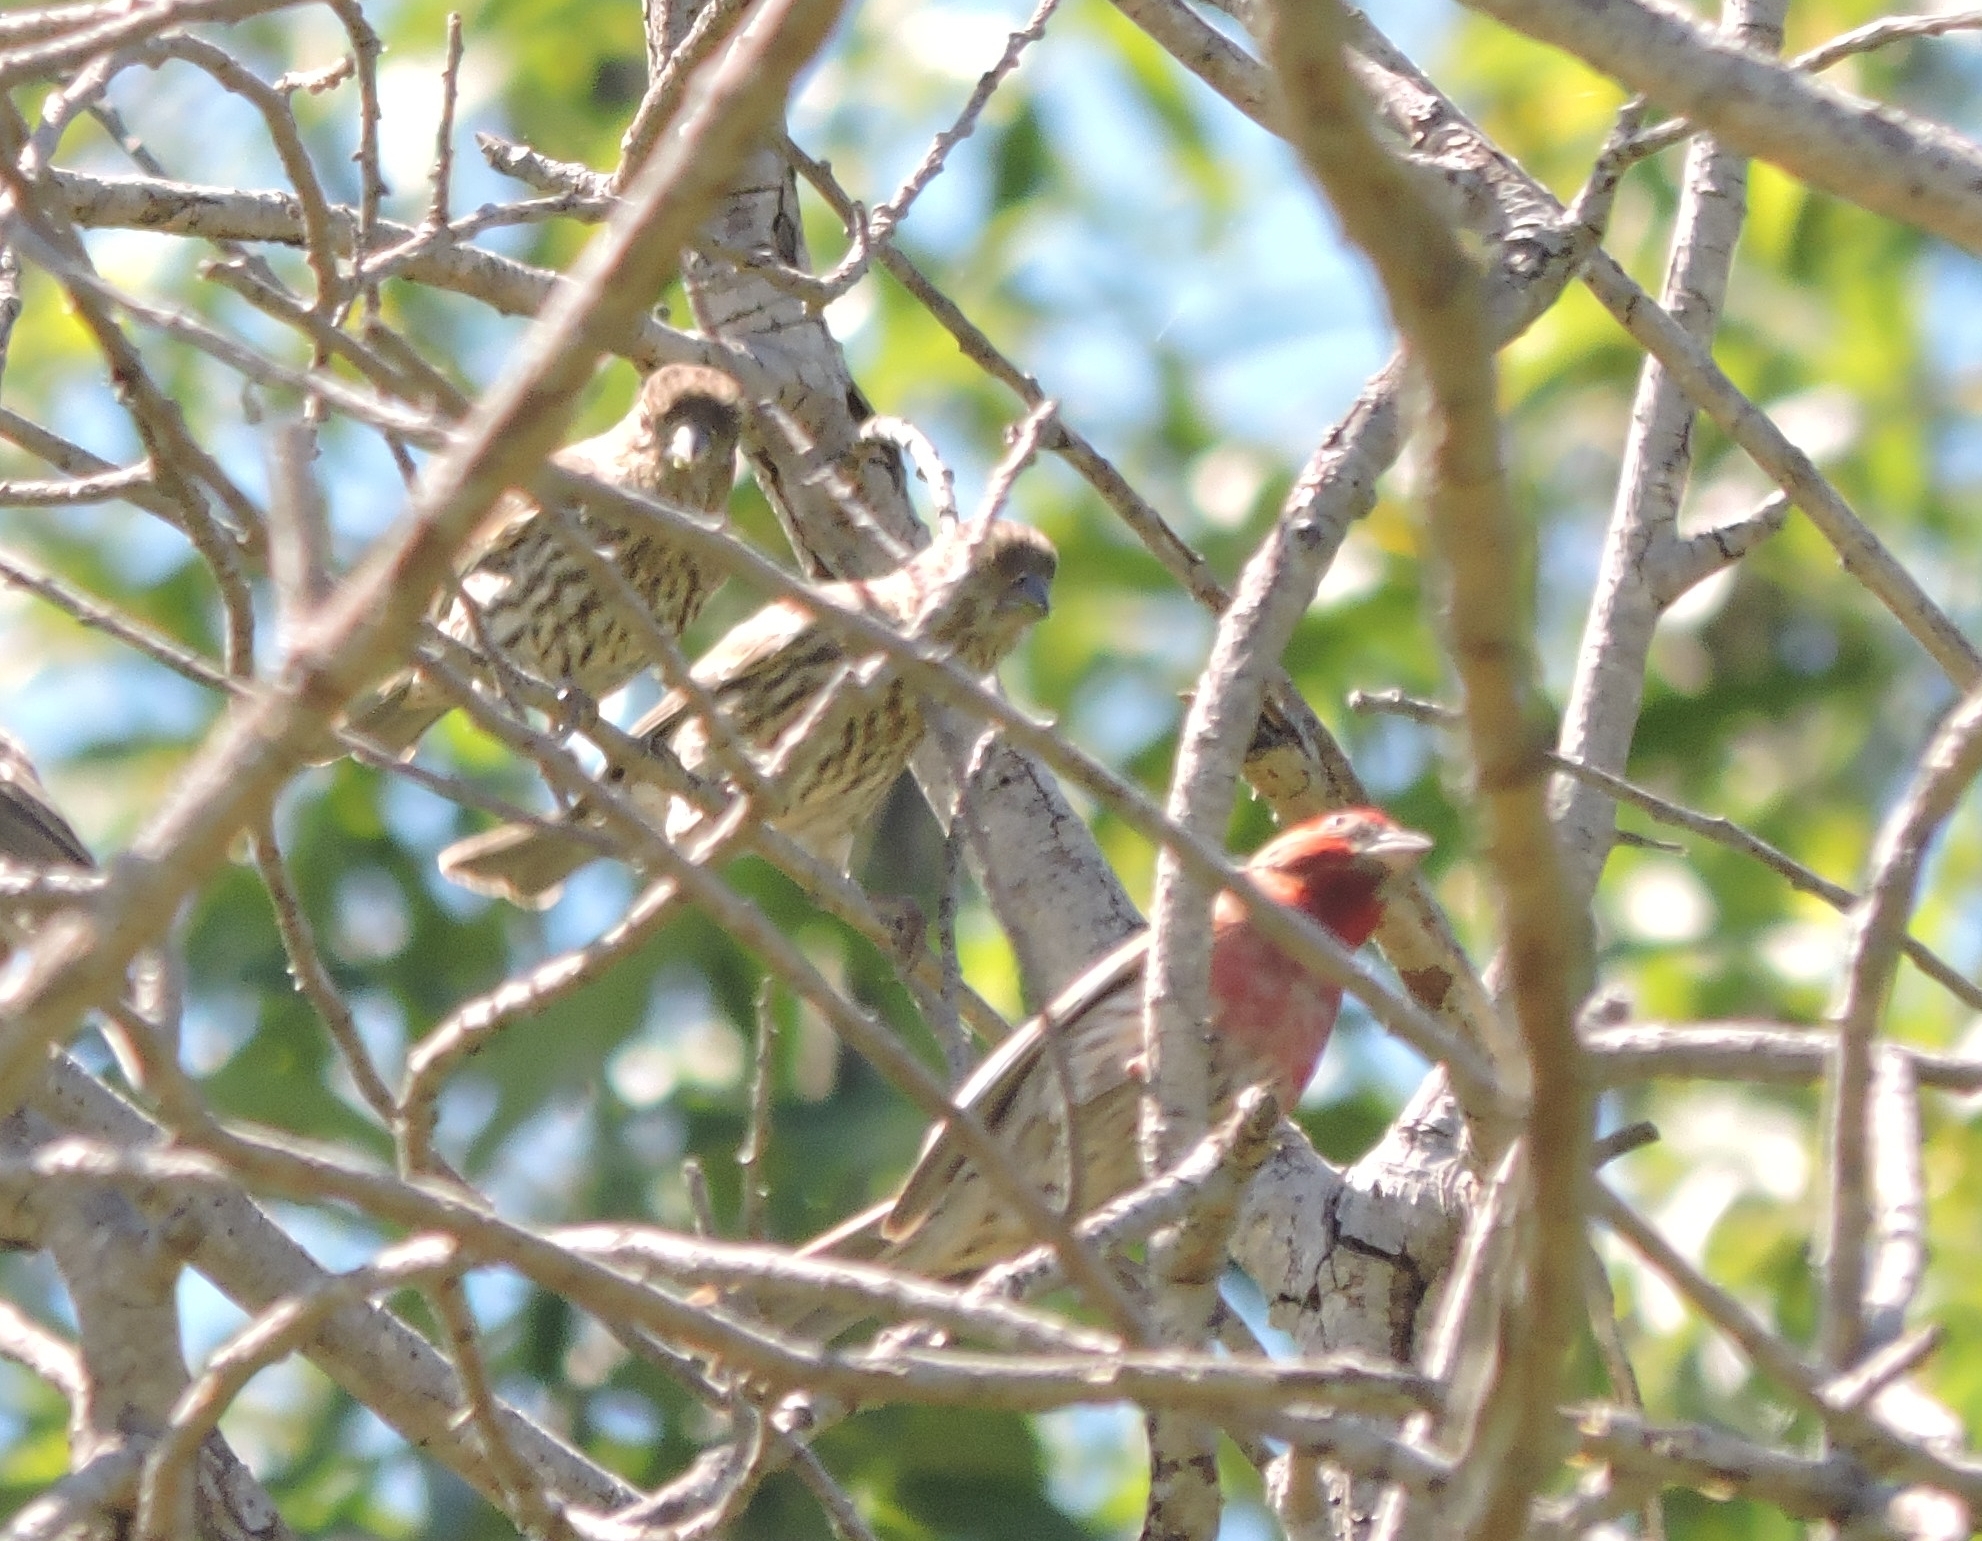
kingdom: Animalia
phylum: Chordata
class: Aves
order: Passeriformes
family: Fringillidae
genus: Haemorhous
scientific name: Haemorhous mexicanus
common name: House finch
